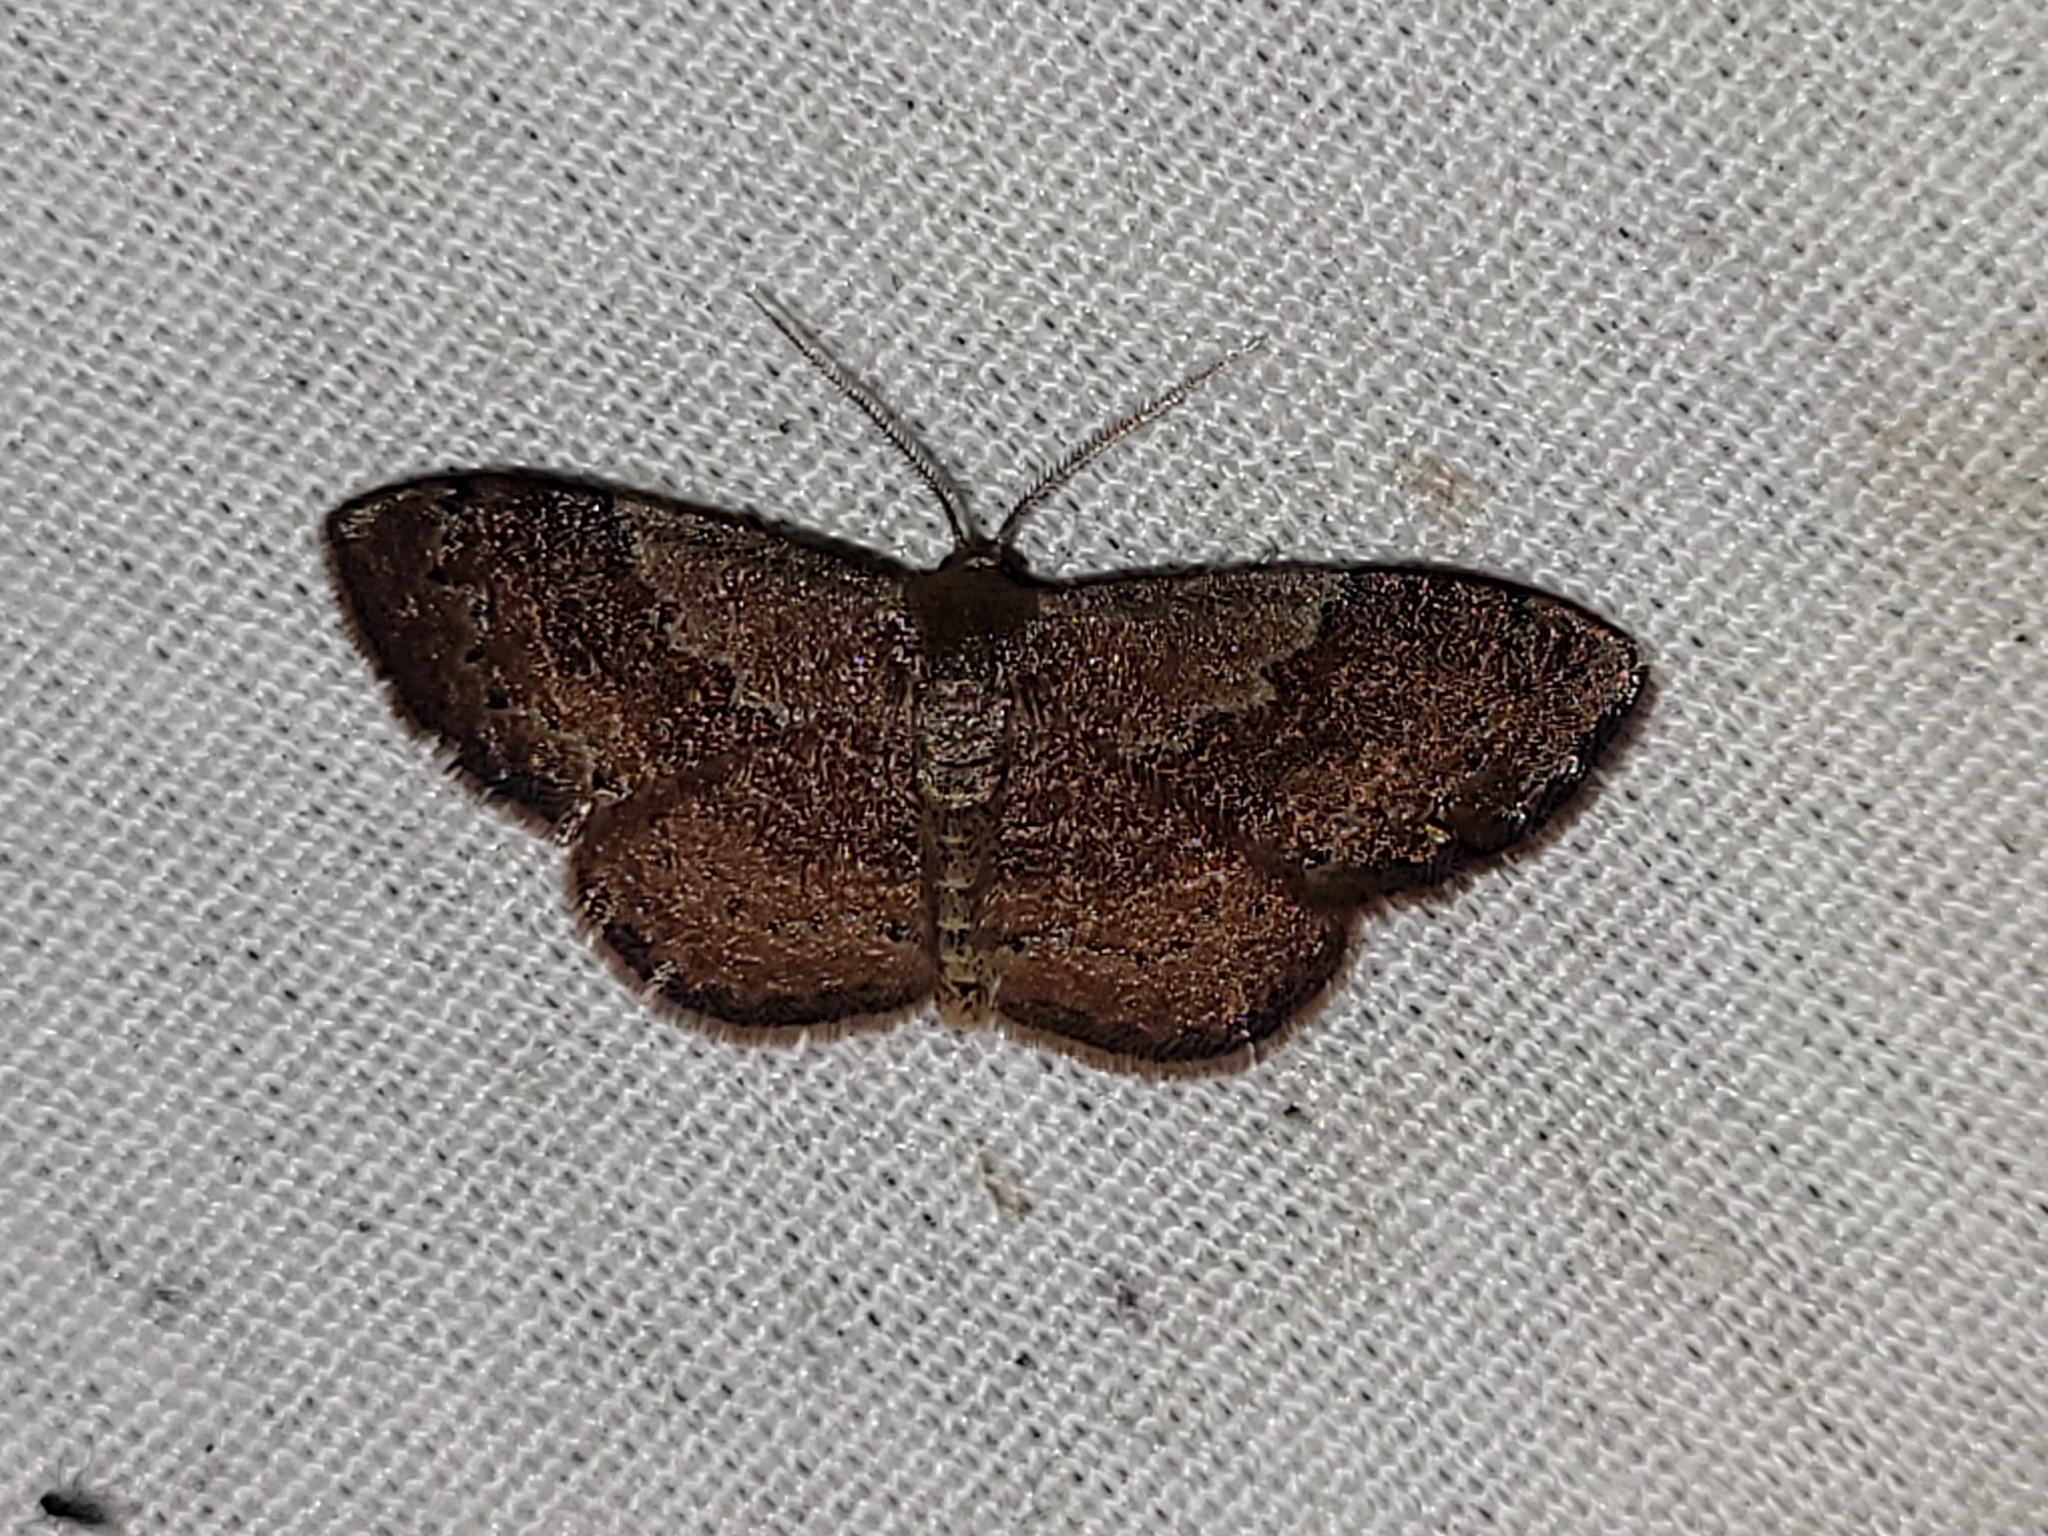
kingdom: Animalia
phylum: Arthropoda
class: Insecta
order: Lepidoptera
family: Geometridae
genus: Leptostales
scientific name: Leptostales ferruminaria
